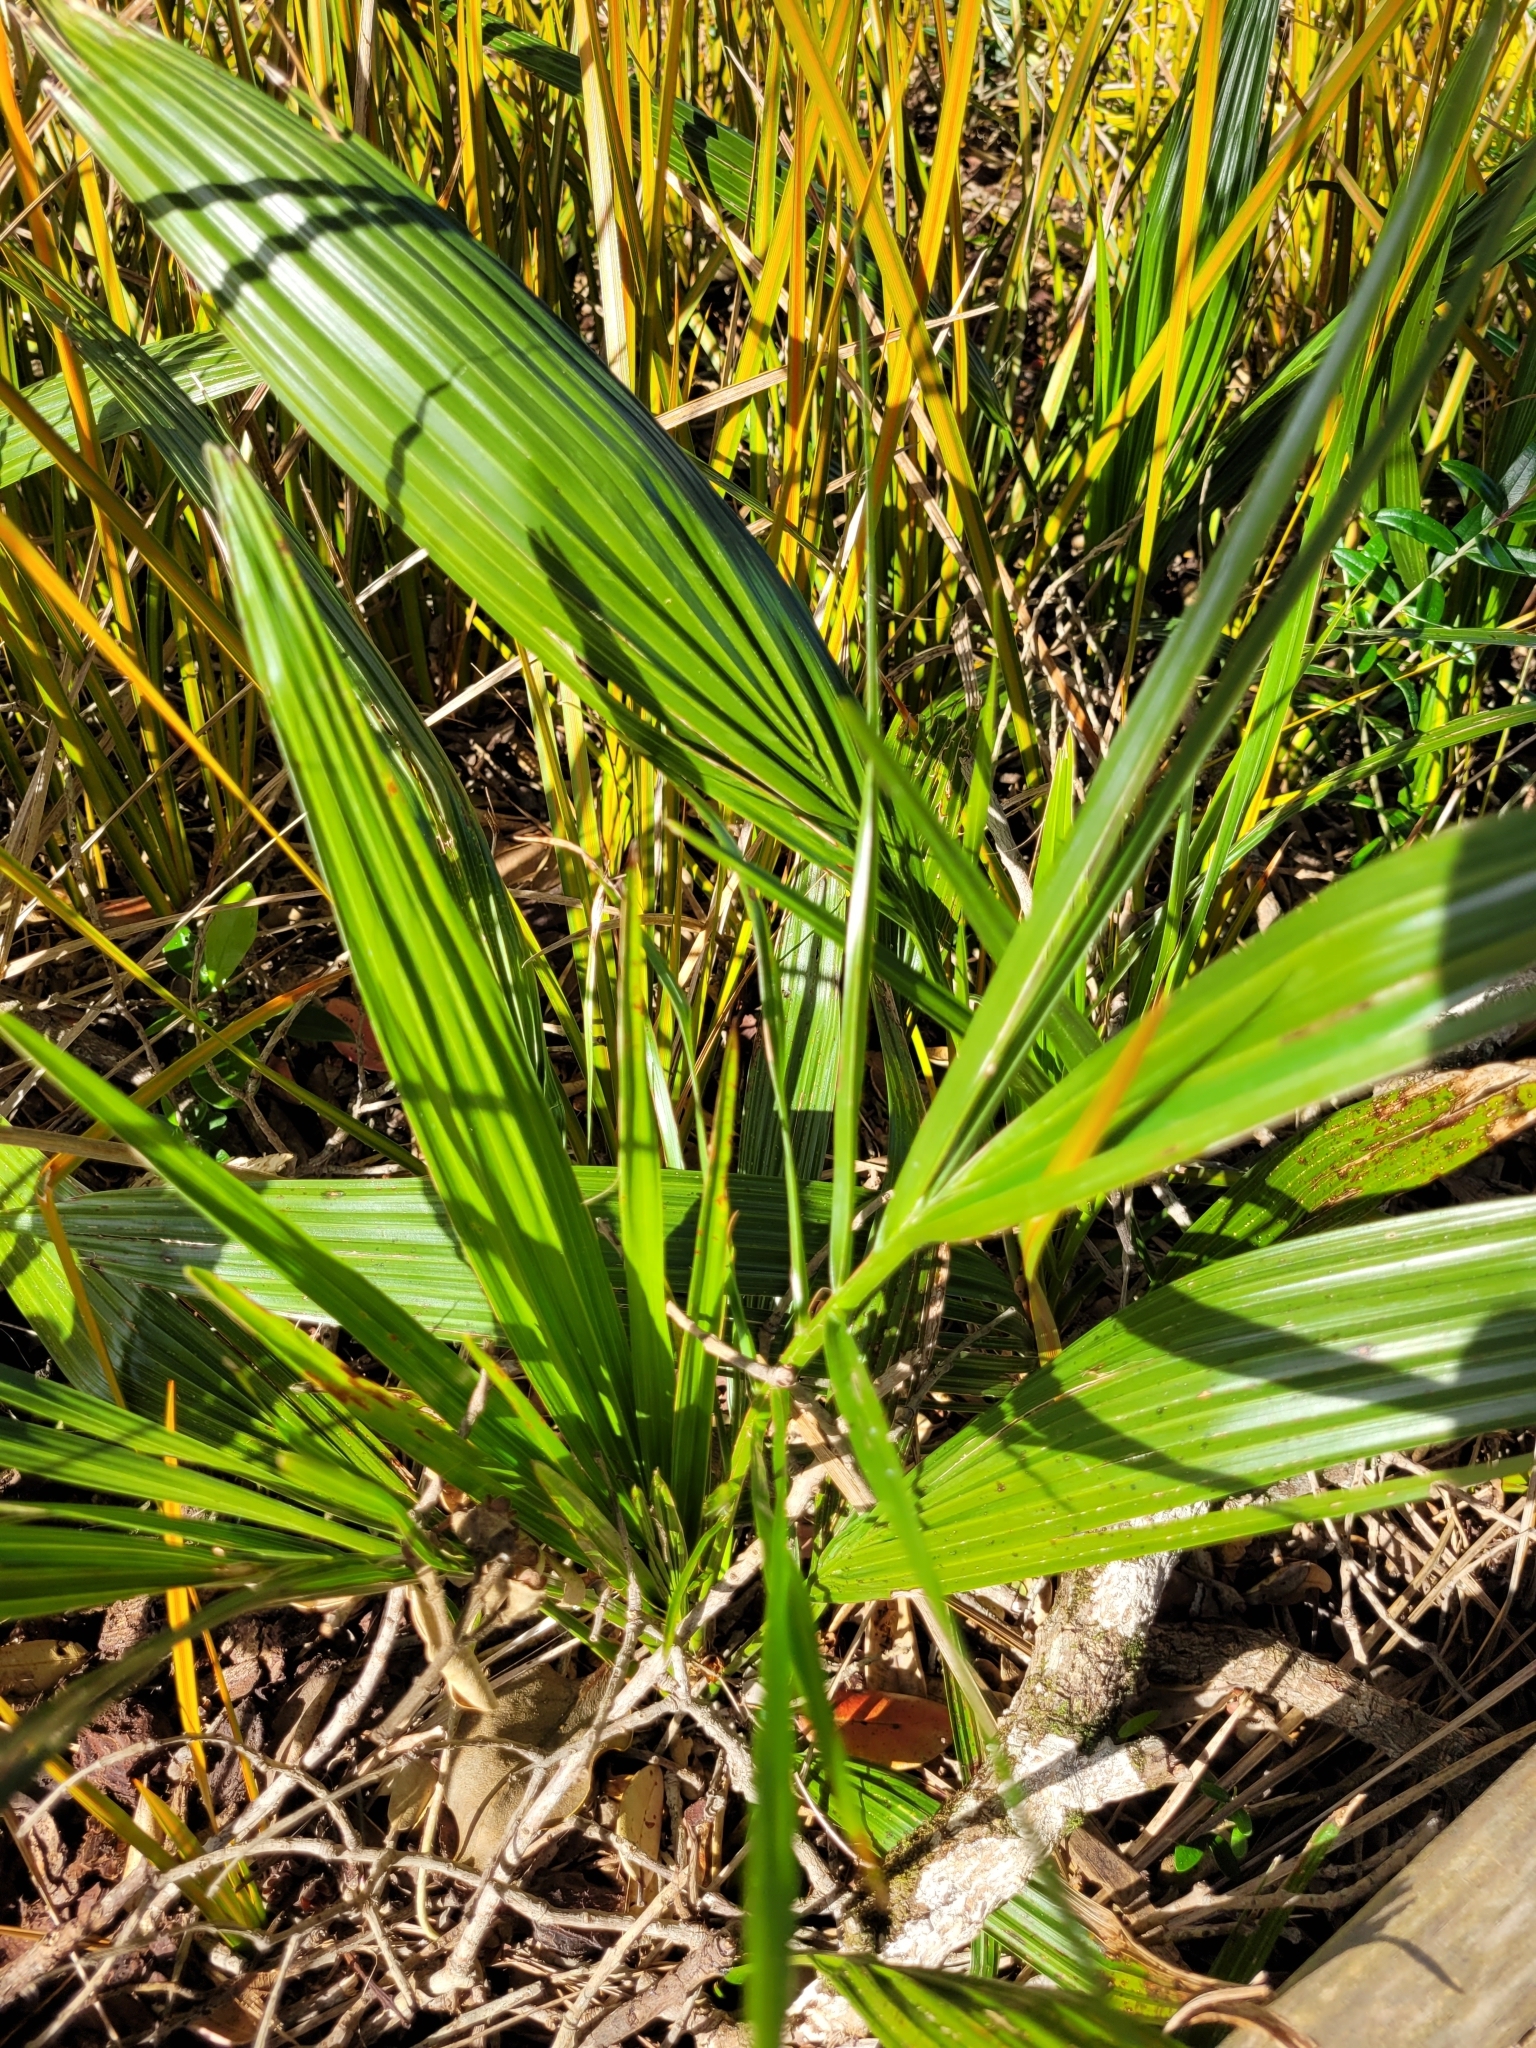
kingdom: Plantae
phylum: Tracheophyta
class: Liliopsida
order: Arecales
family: Arecaceae
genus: Phoenix
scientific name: Phoenix canariensis
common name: Canary island date palm
